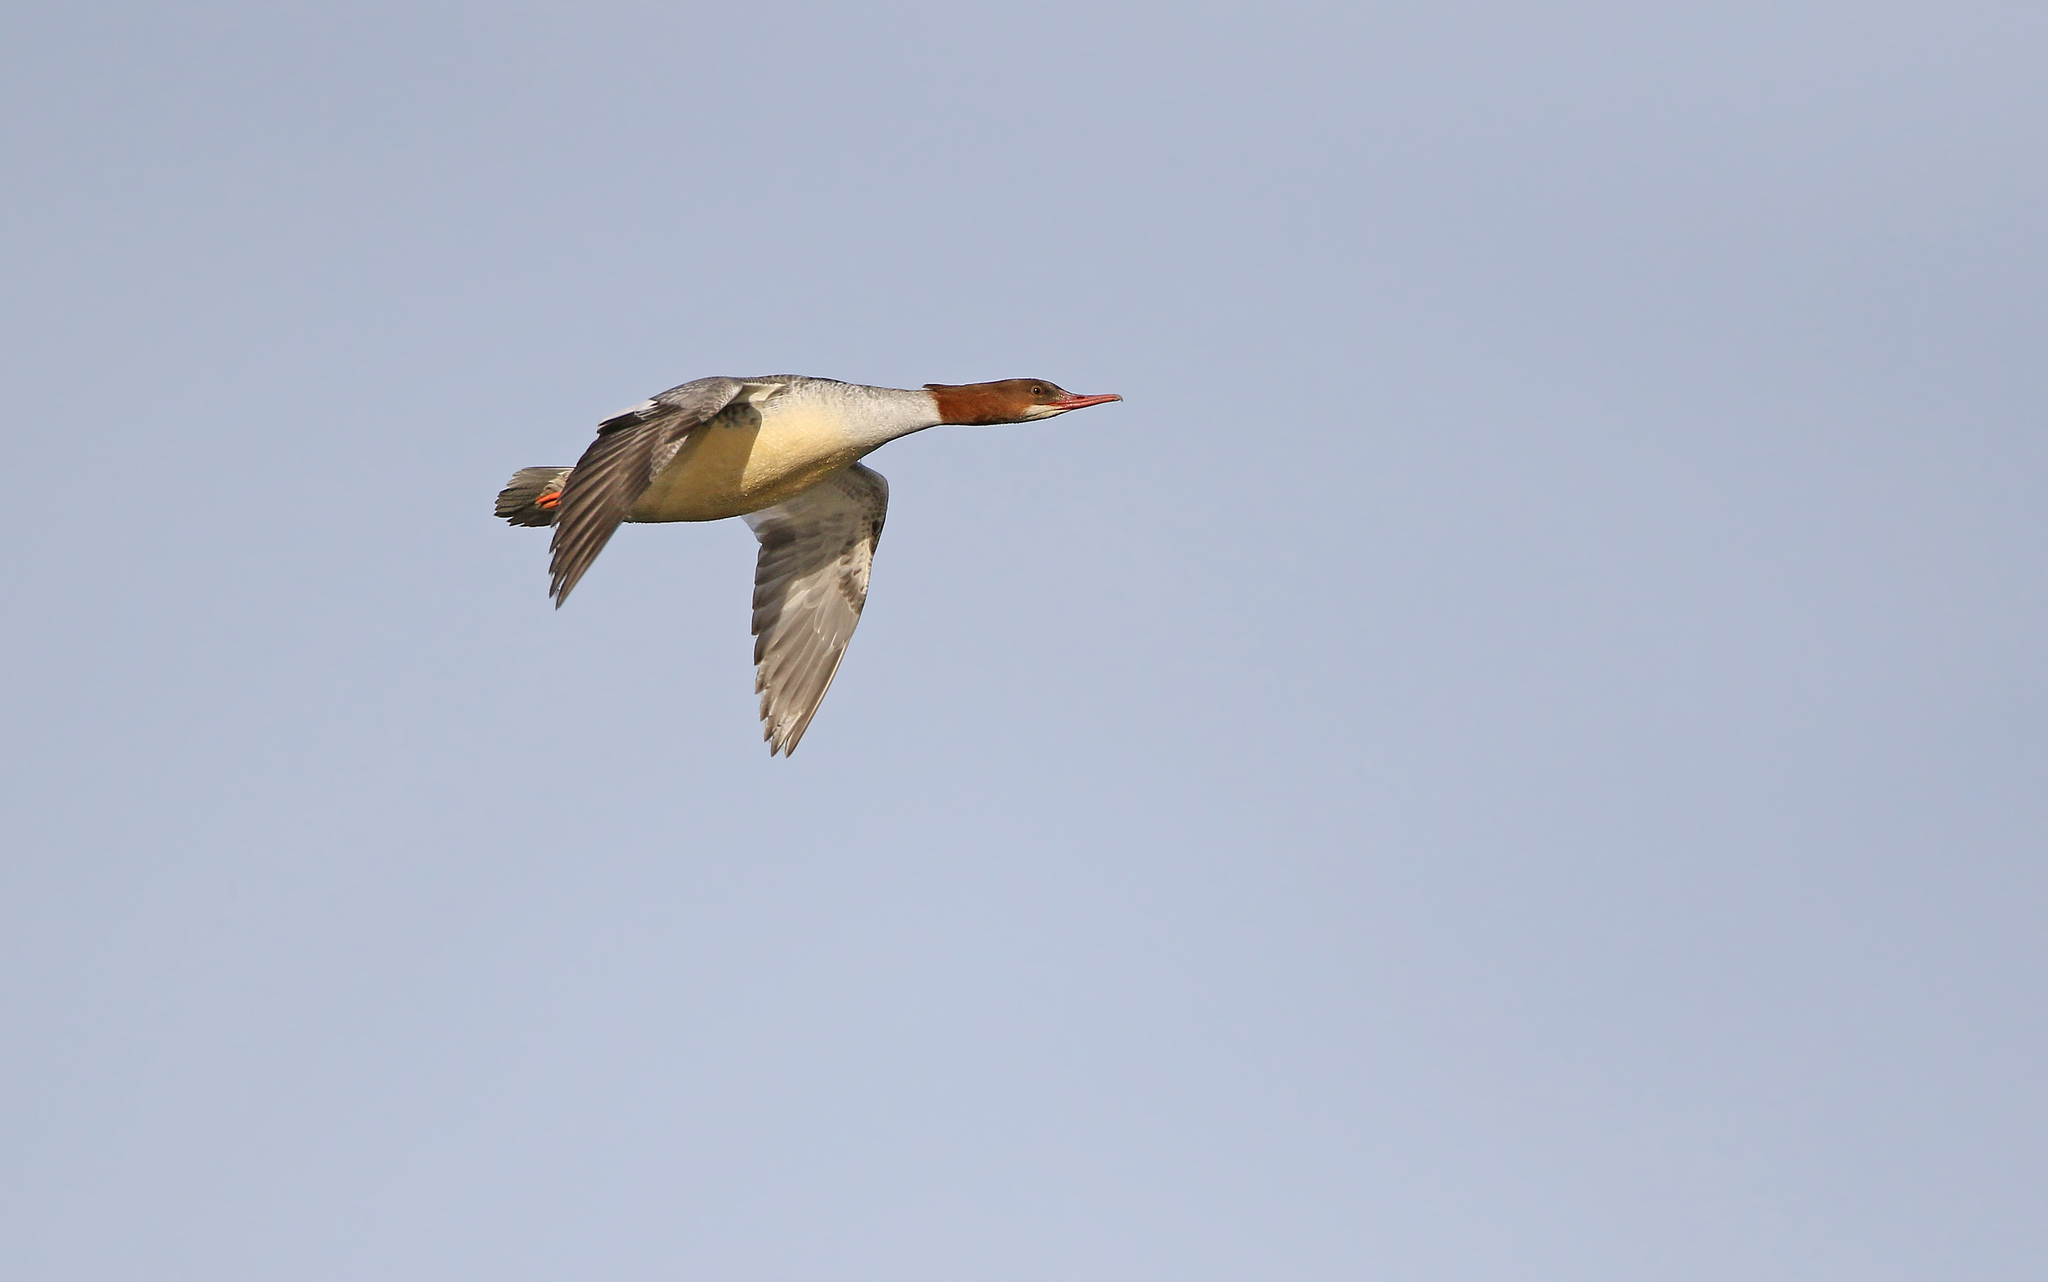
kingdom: Animalia
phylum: Chordata
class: Aves
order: Anseriformes
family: Anatidae
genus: Mergus
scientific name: Mergus merganser
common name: Common merganser
